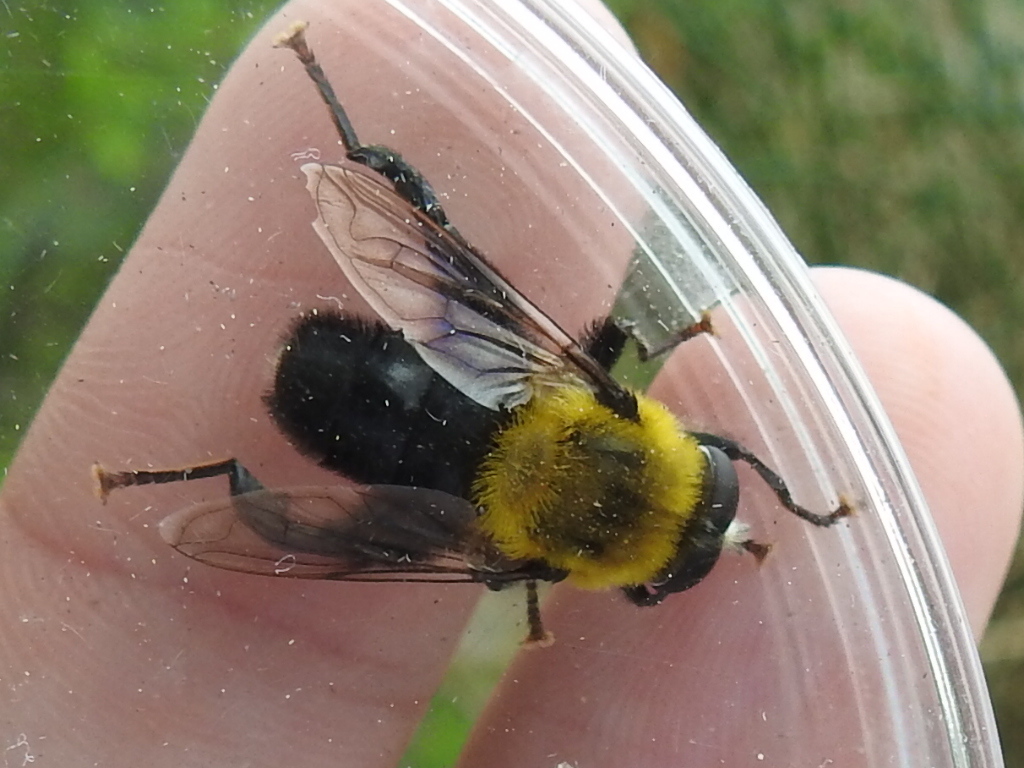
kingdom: Animalia
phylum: Arthropoda
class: Insecta
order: Diptera
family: Syrphidae
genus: Imatisma
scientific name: Imatisma bautias
